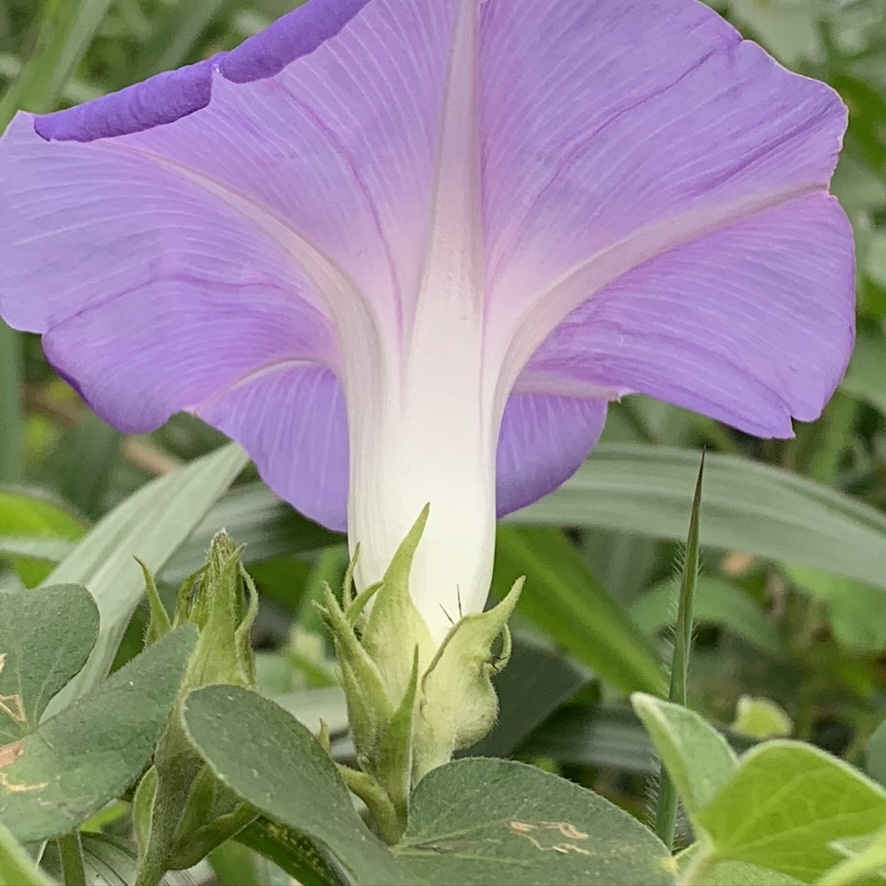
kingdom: Plantae
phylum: Tracheophyta
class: Magnoliopsida
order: Solanales
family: Convolvulaceae
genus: Ipomoea
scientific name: Ipomoea indica
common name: Blue dawnflower
